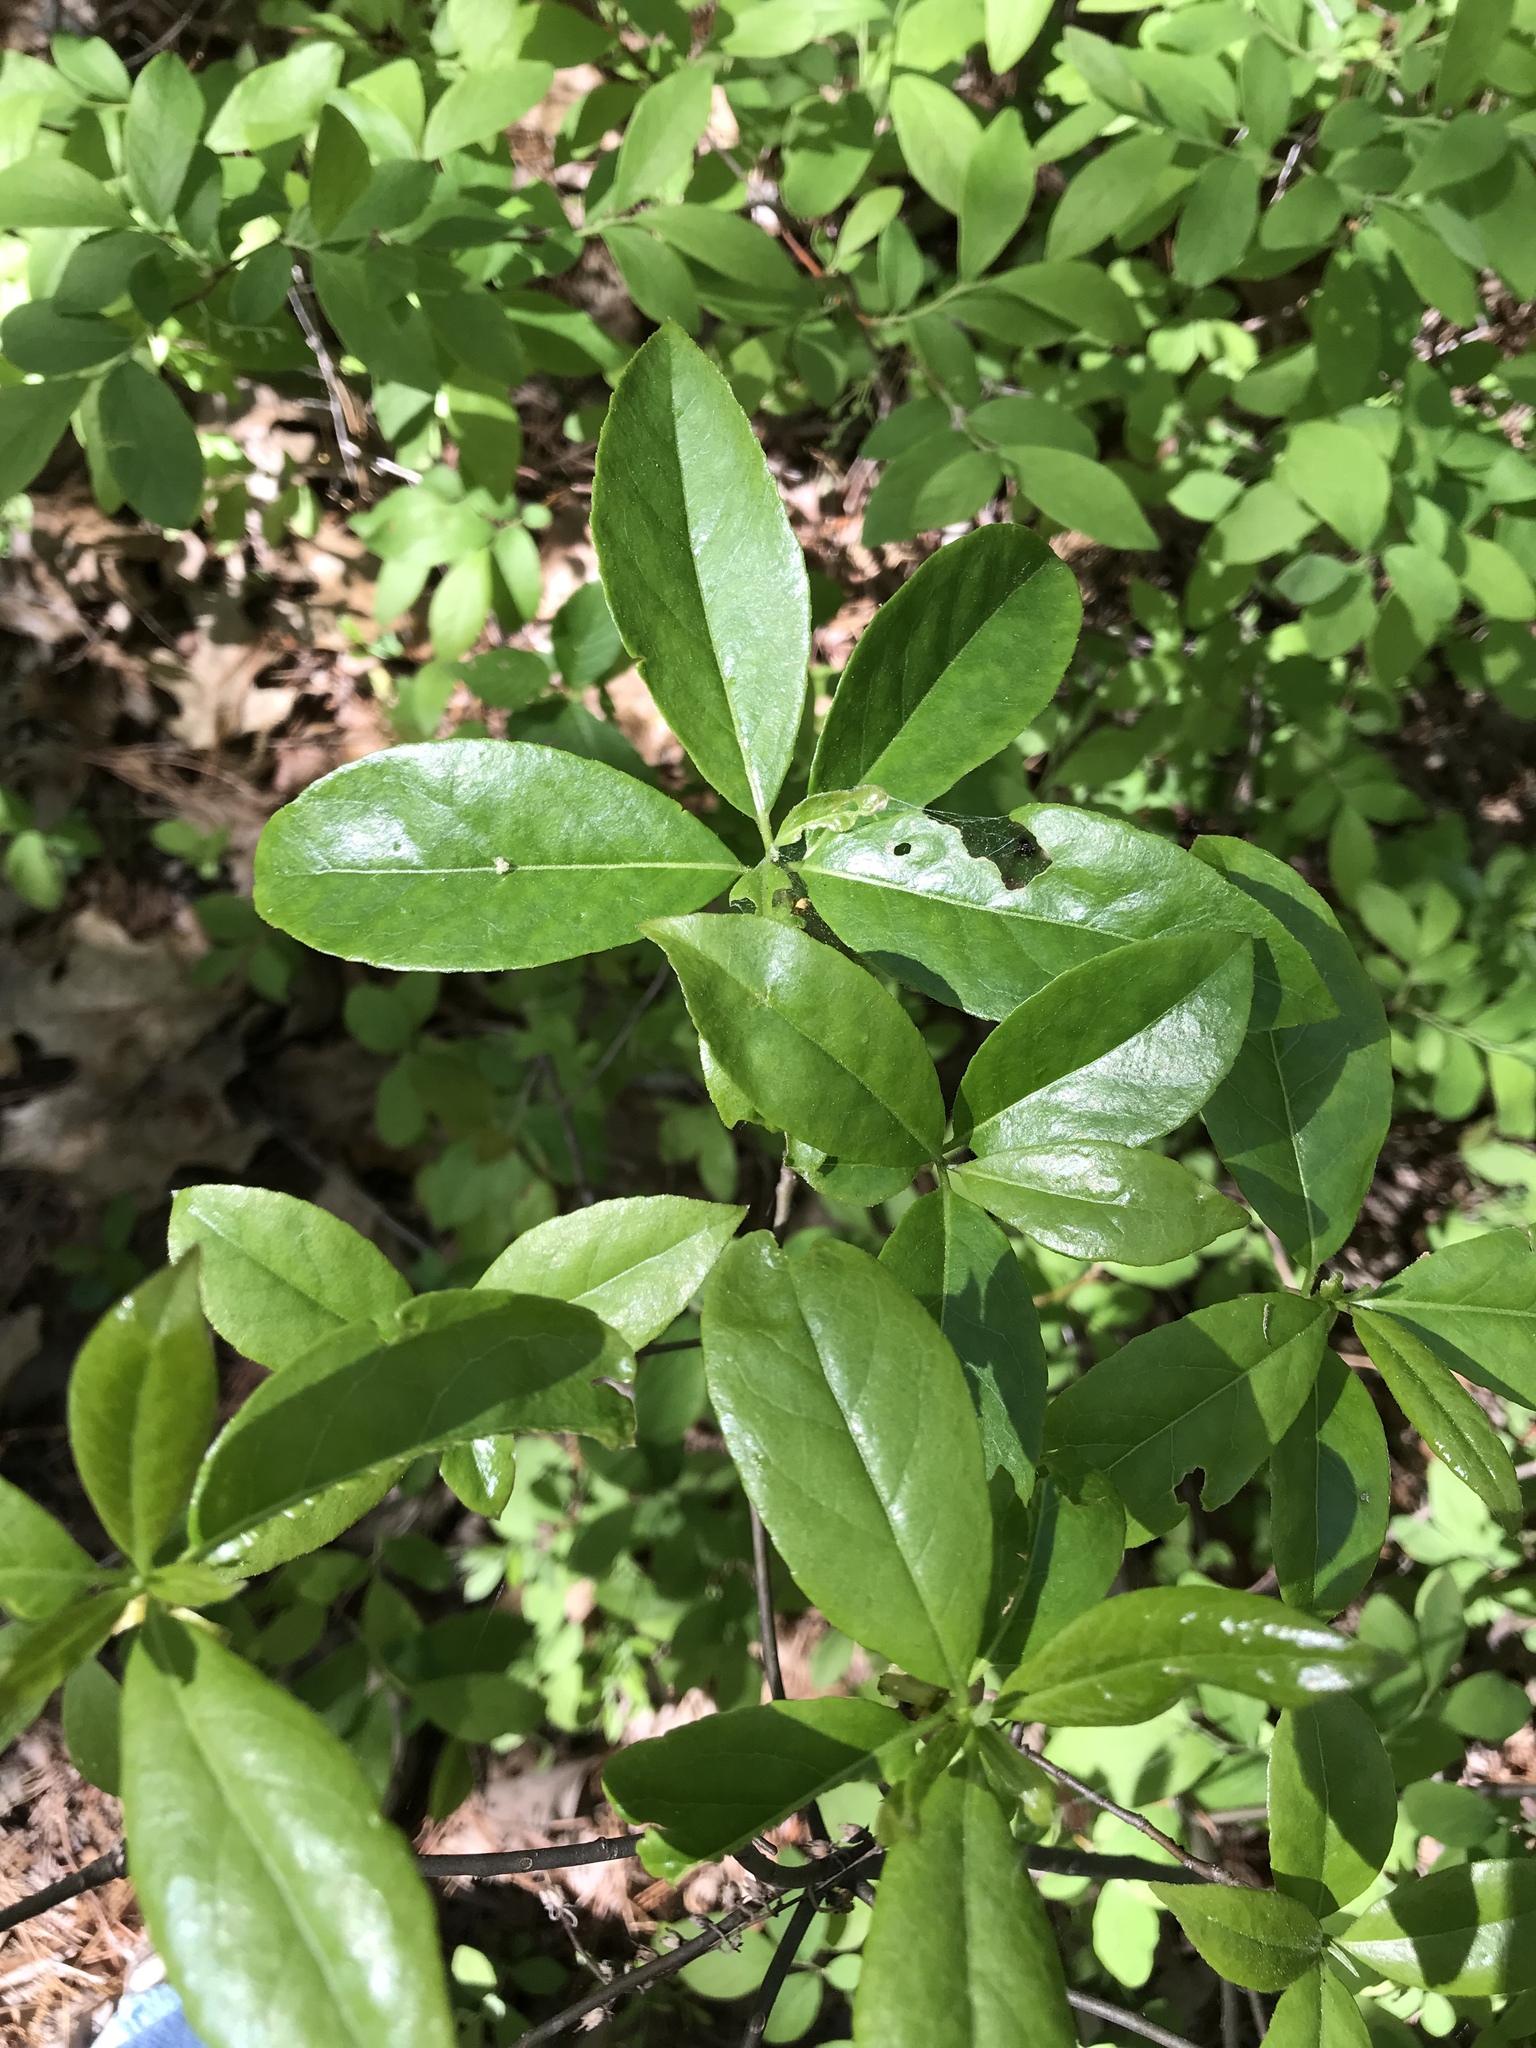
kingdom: Plantae
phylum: Tracheophyta
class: Magnoliopsida
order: Ericales
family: Symplocaceae
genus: Symplocos
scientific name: Symplocos tinctoria
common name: Horse-sugar
